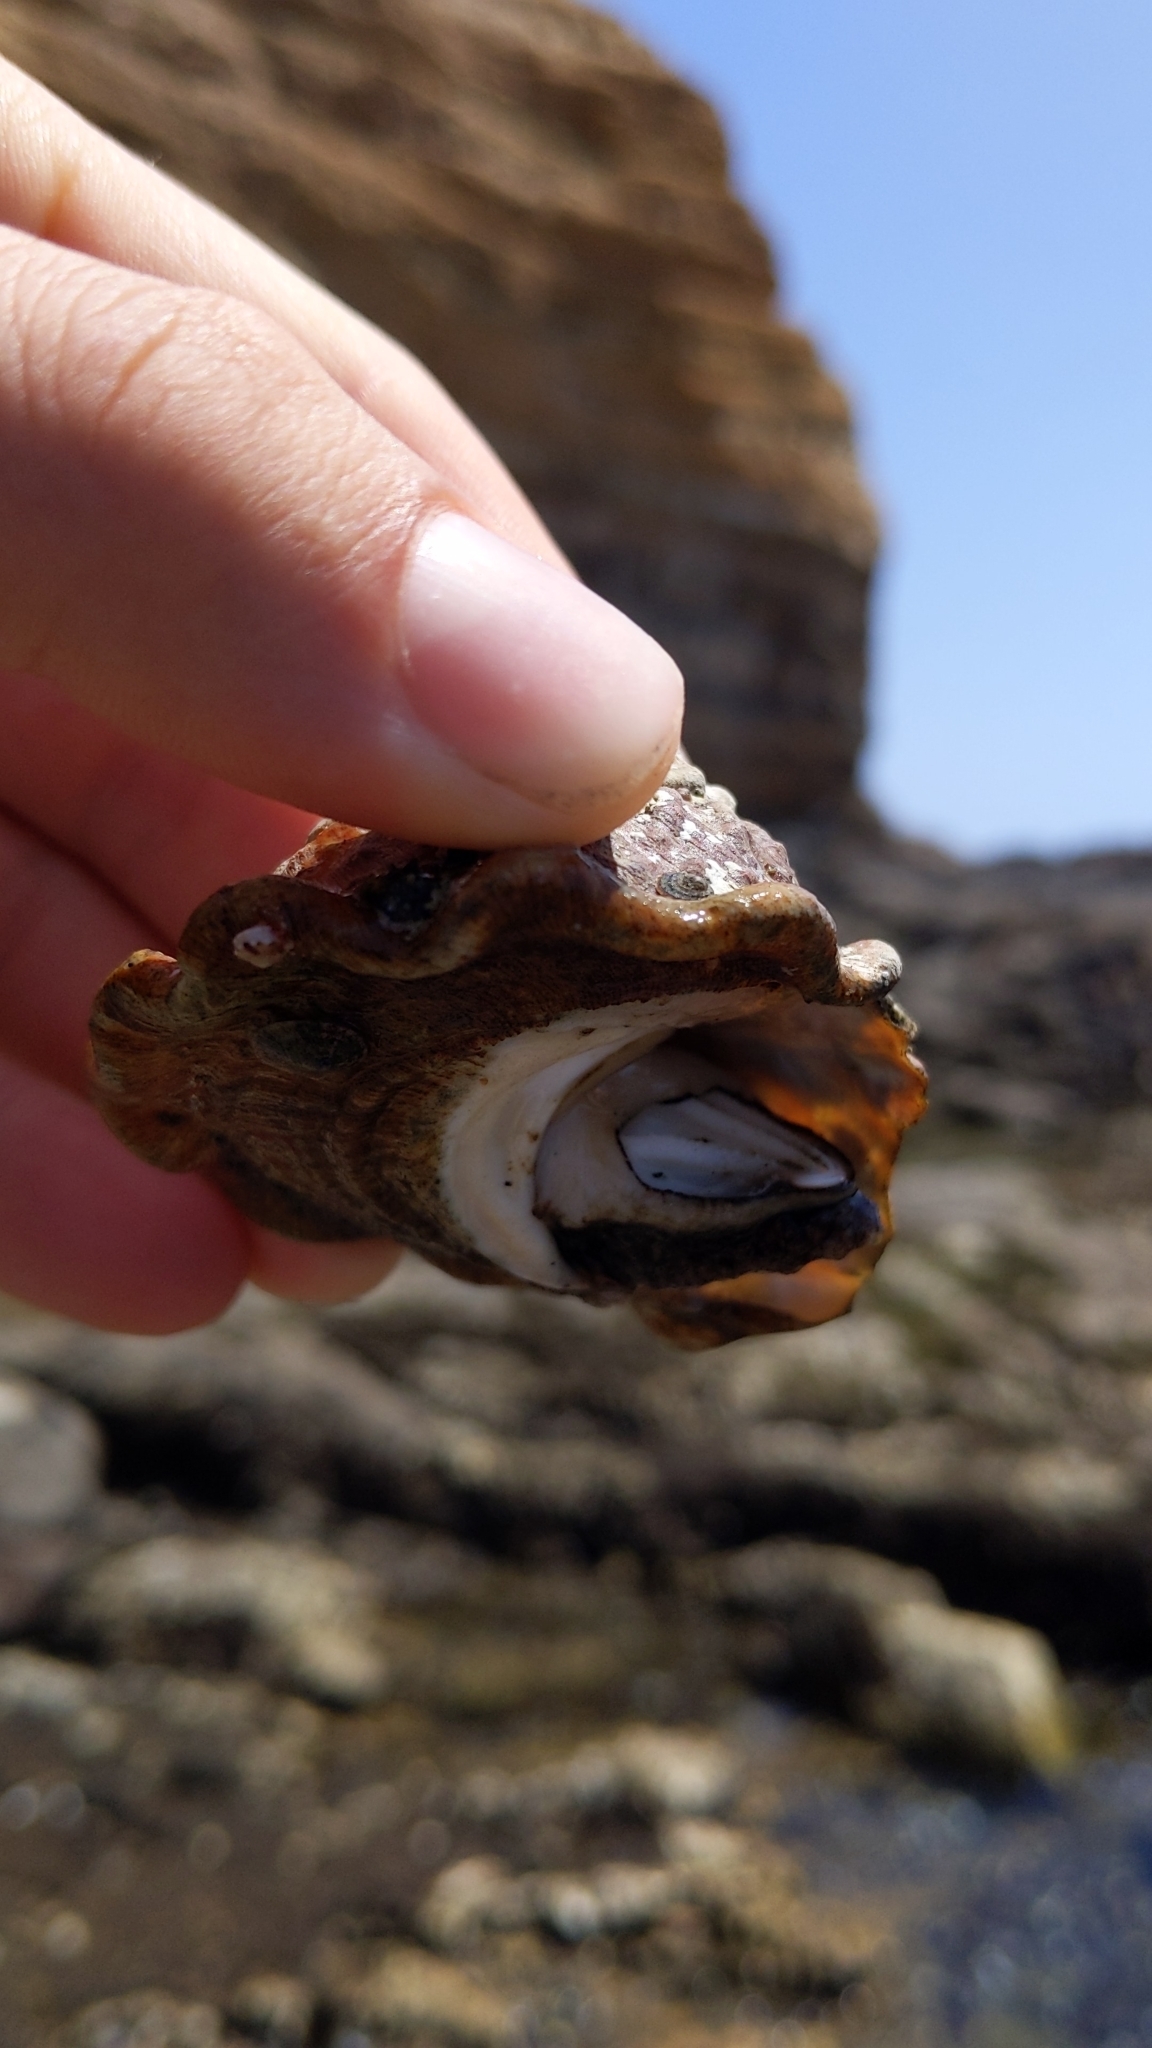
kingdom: Animalia
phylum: Mollusca
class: Gastropoda
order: Trochida
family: Turbinidae
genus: Megastraea
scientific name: Megastraea undosa
